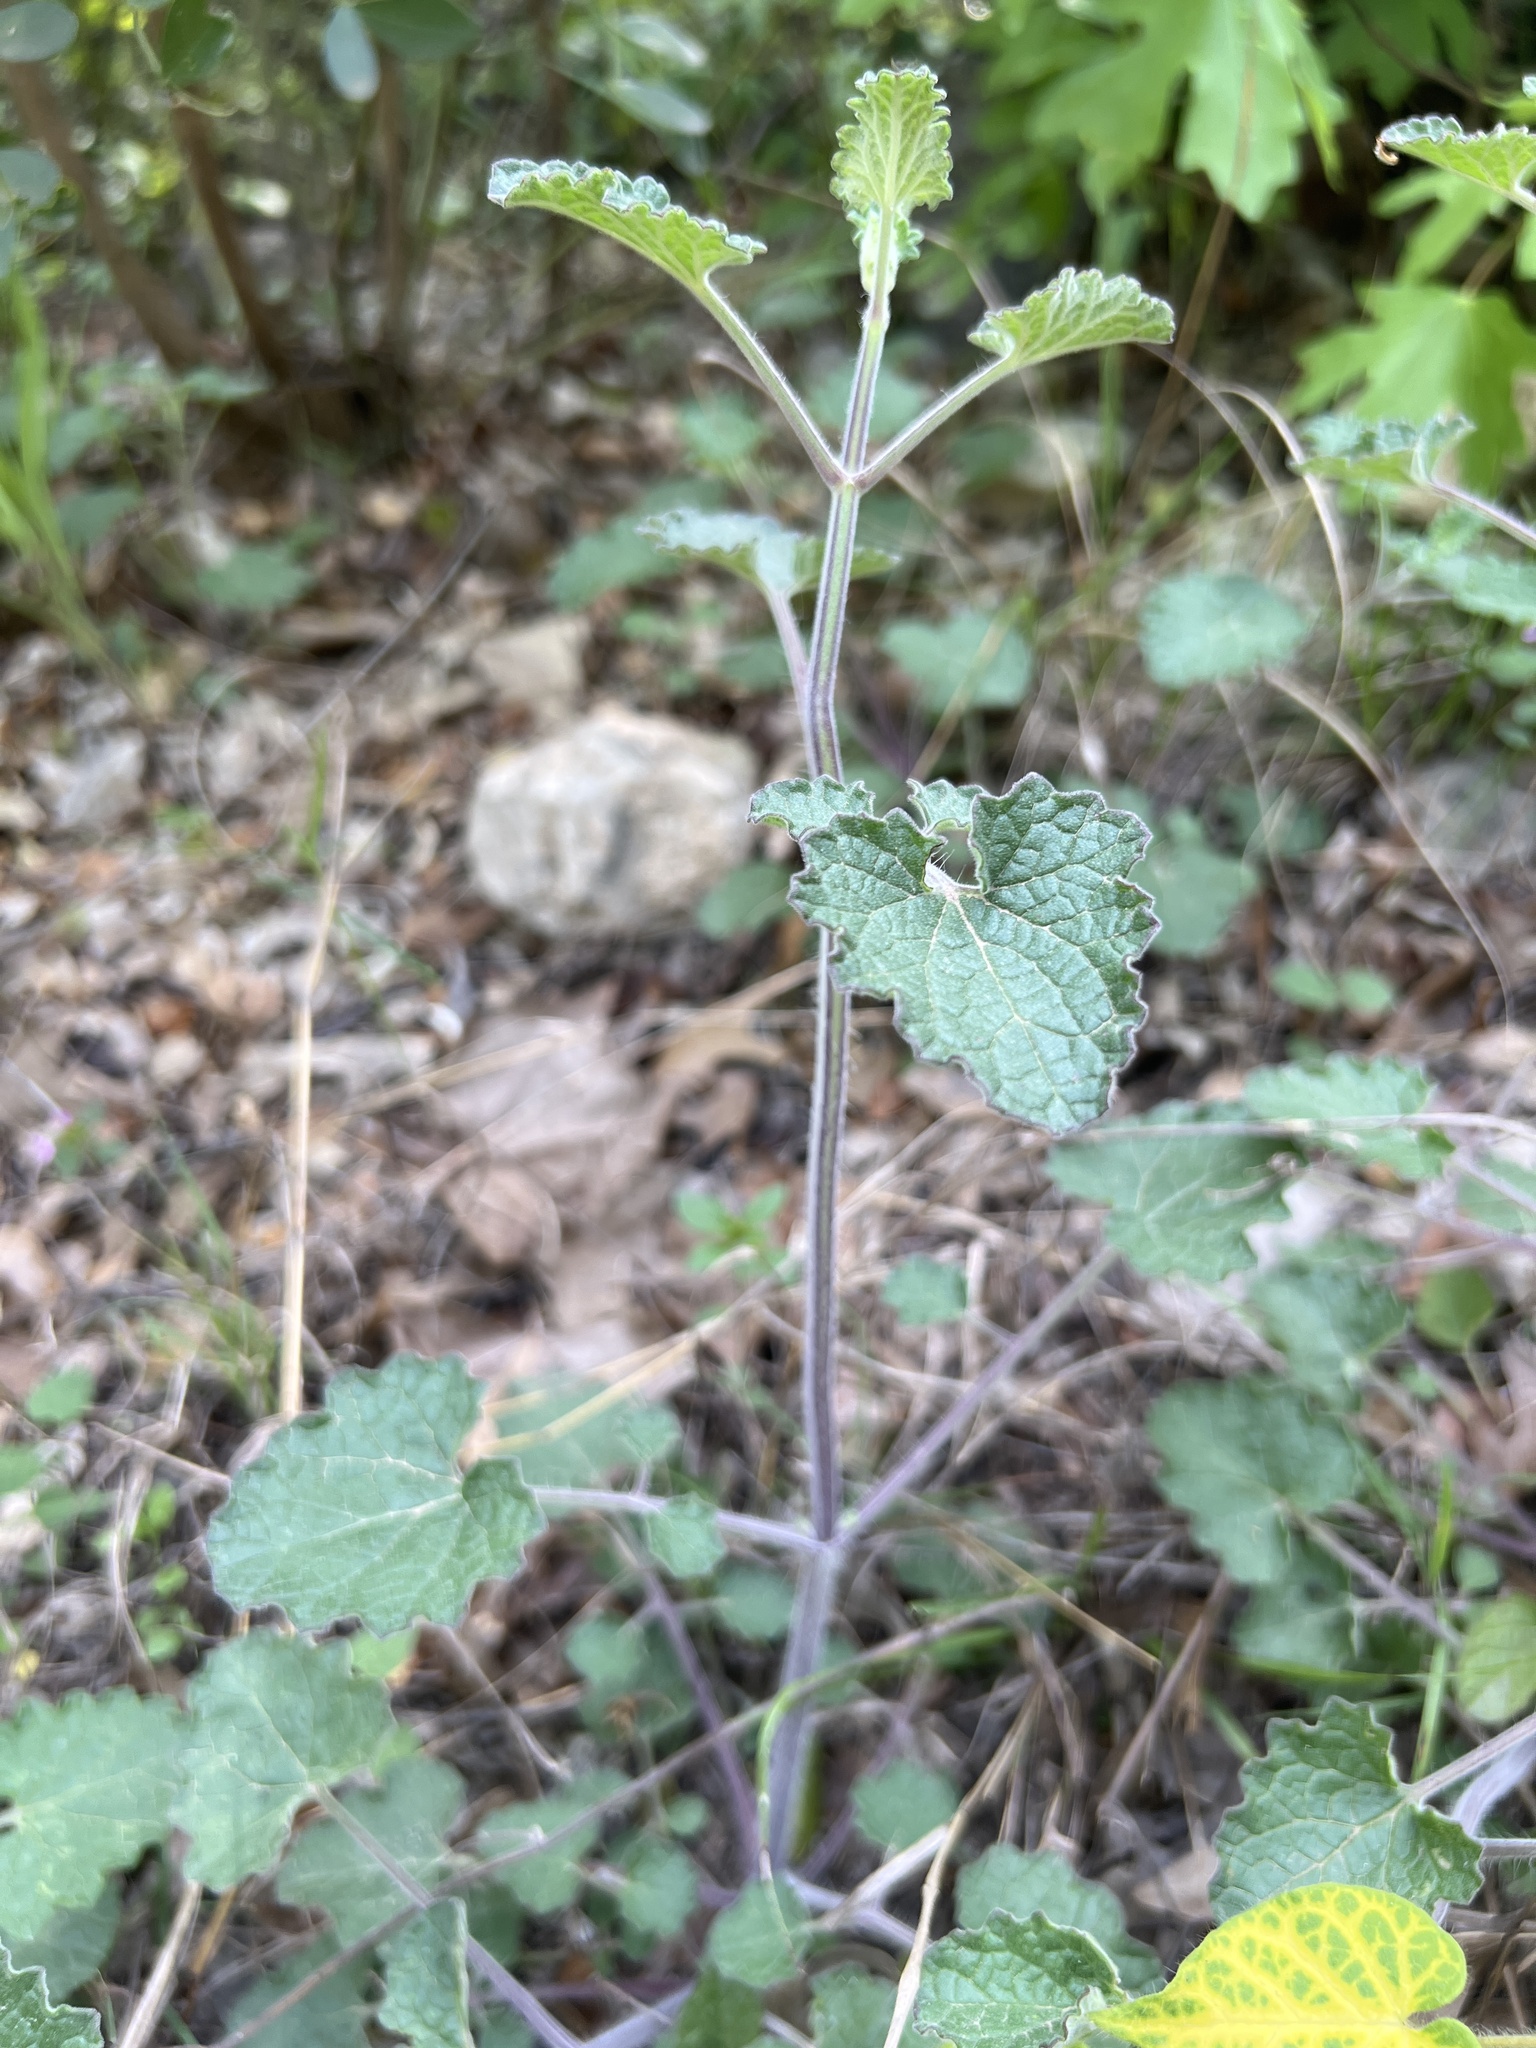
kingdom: Plantae
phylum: Tracheophyta
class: Magnoliopsida
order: Lamiales
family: Lamiaceae
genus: Salvia
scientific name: Salvia roemeriana
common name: Cedar sage
